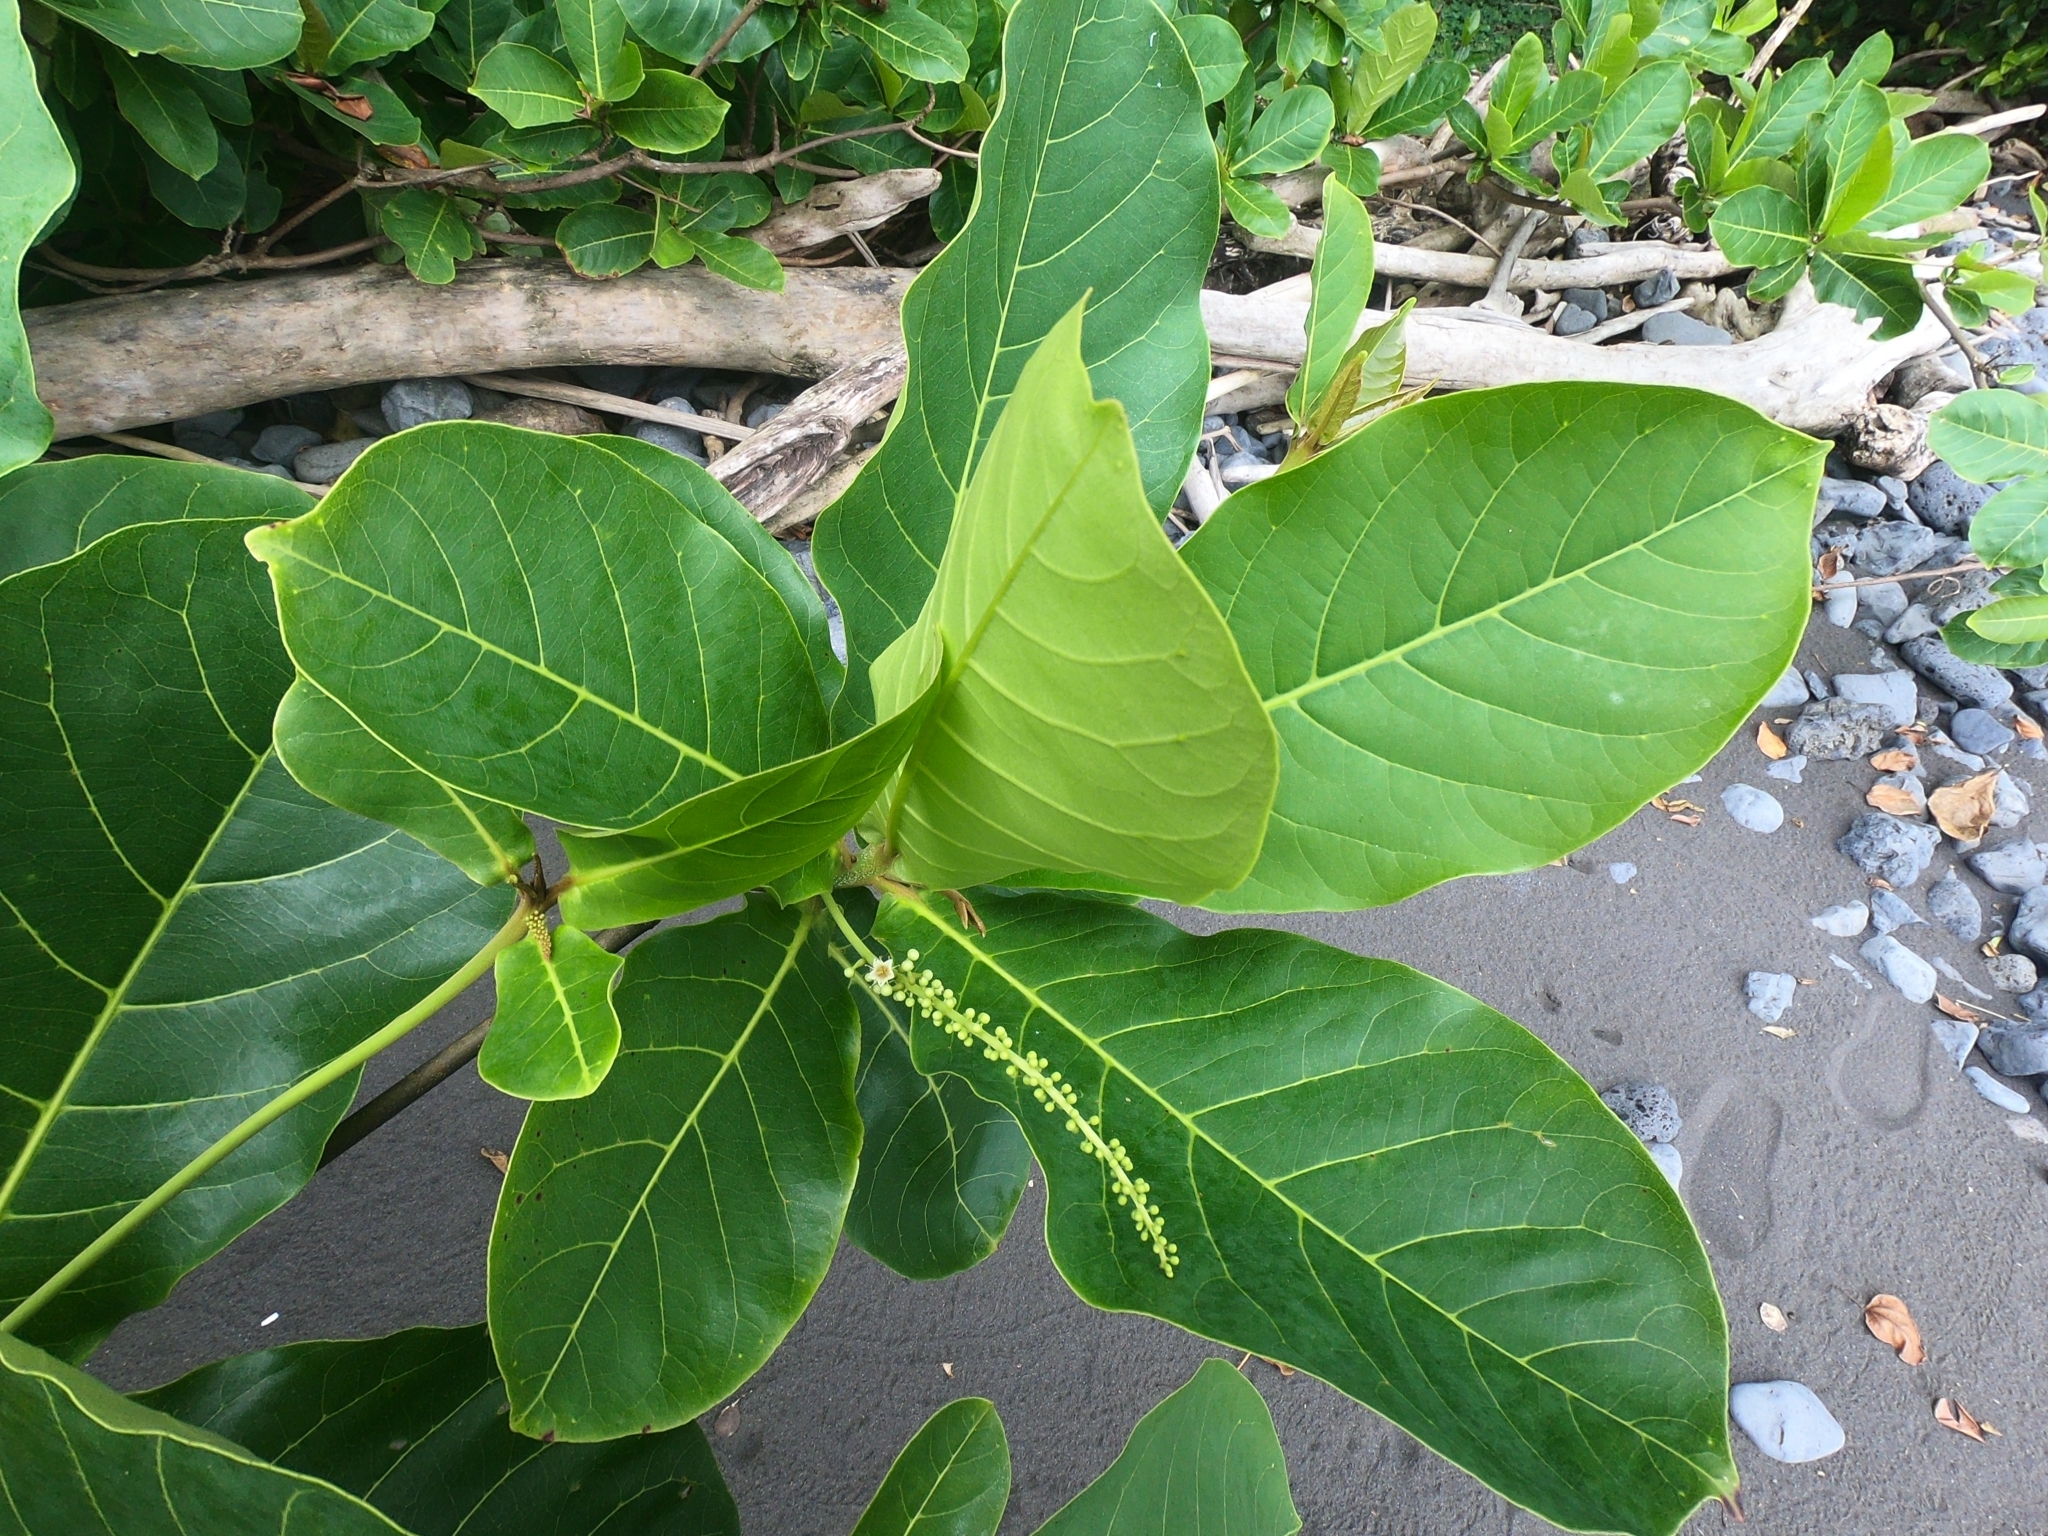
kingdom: Plantae
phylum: Tracheophyta
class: Magnoliopsida
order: Myrtales
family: Combretaceae
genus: Terminalia
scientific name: Terminalia catappa
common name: Tropical almond
